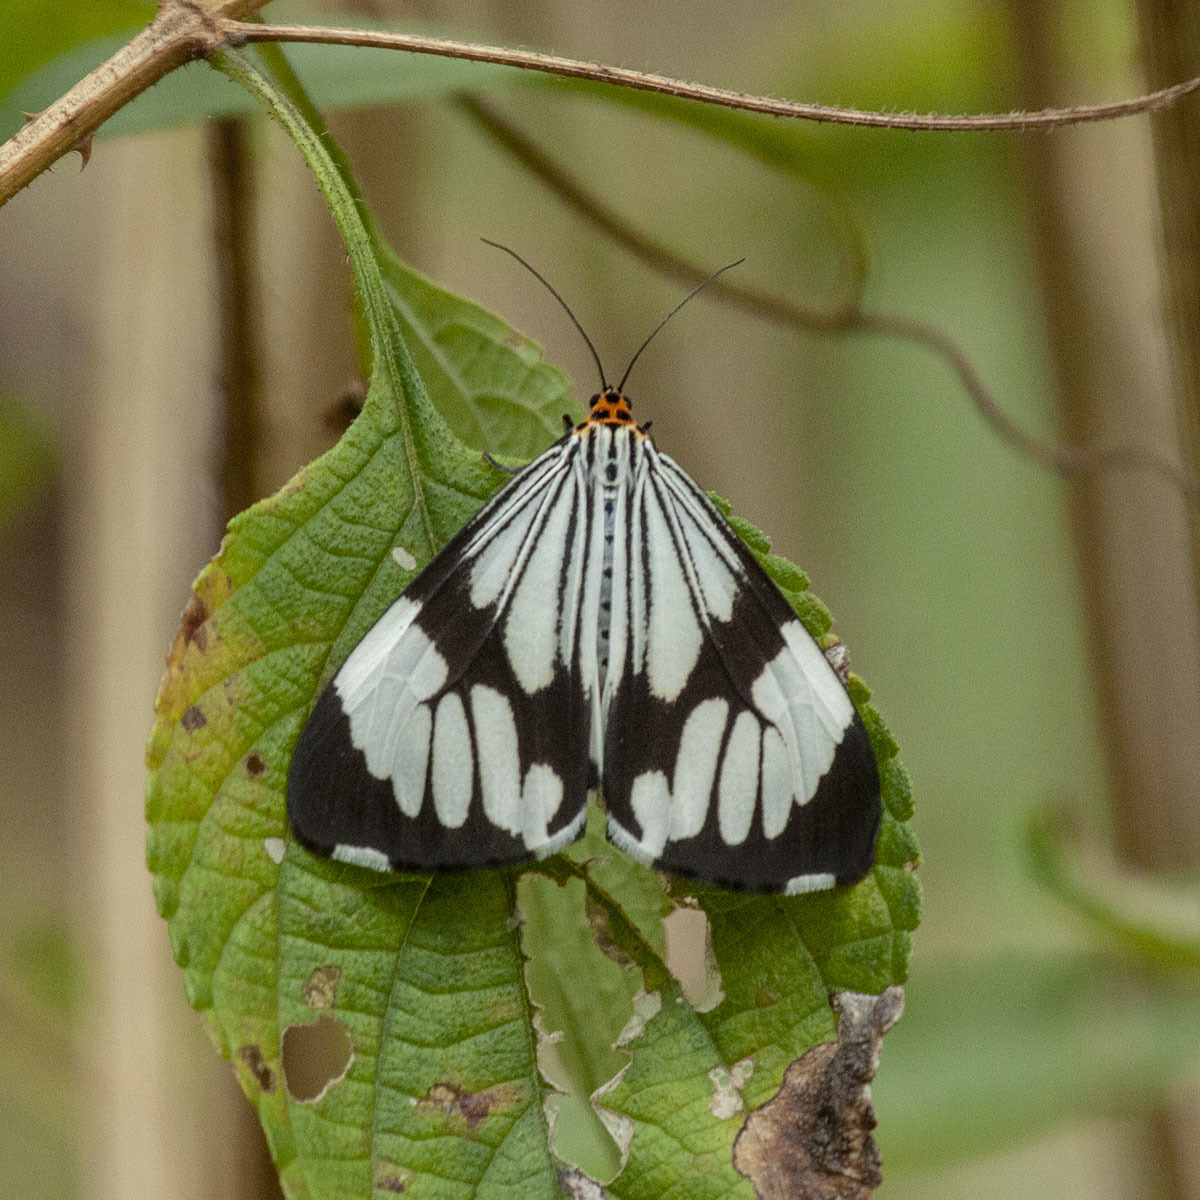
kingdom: Animalia
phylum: Arthropoda
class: Insecta
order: Lepidoptera
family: Erebidae
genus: Nyctemera
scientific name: Nyctemera coleta
